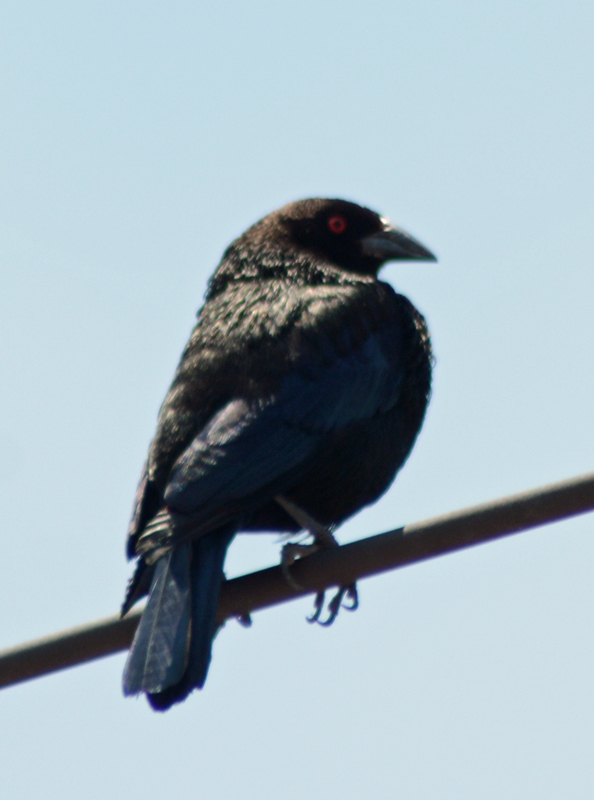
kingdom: Animalia
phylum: Chordata
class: Aves
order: Passeriformes
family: Icteridae
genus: Molothrus
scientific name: Molothrus aeneus
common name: Bronzed cowbird
